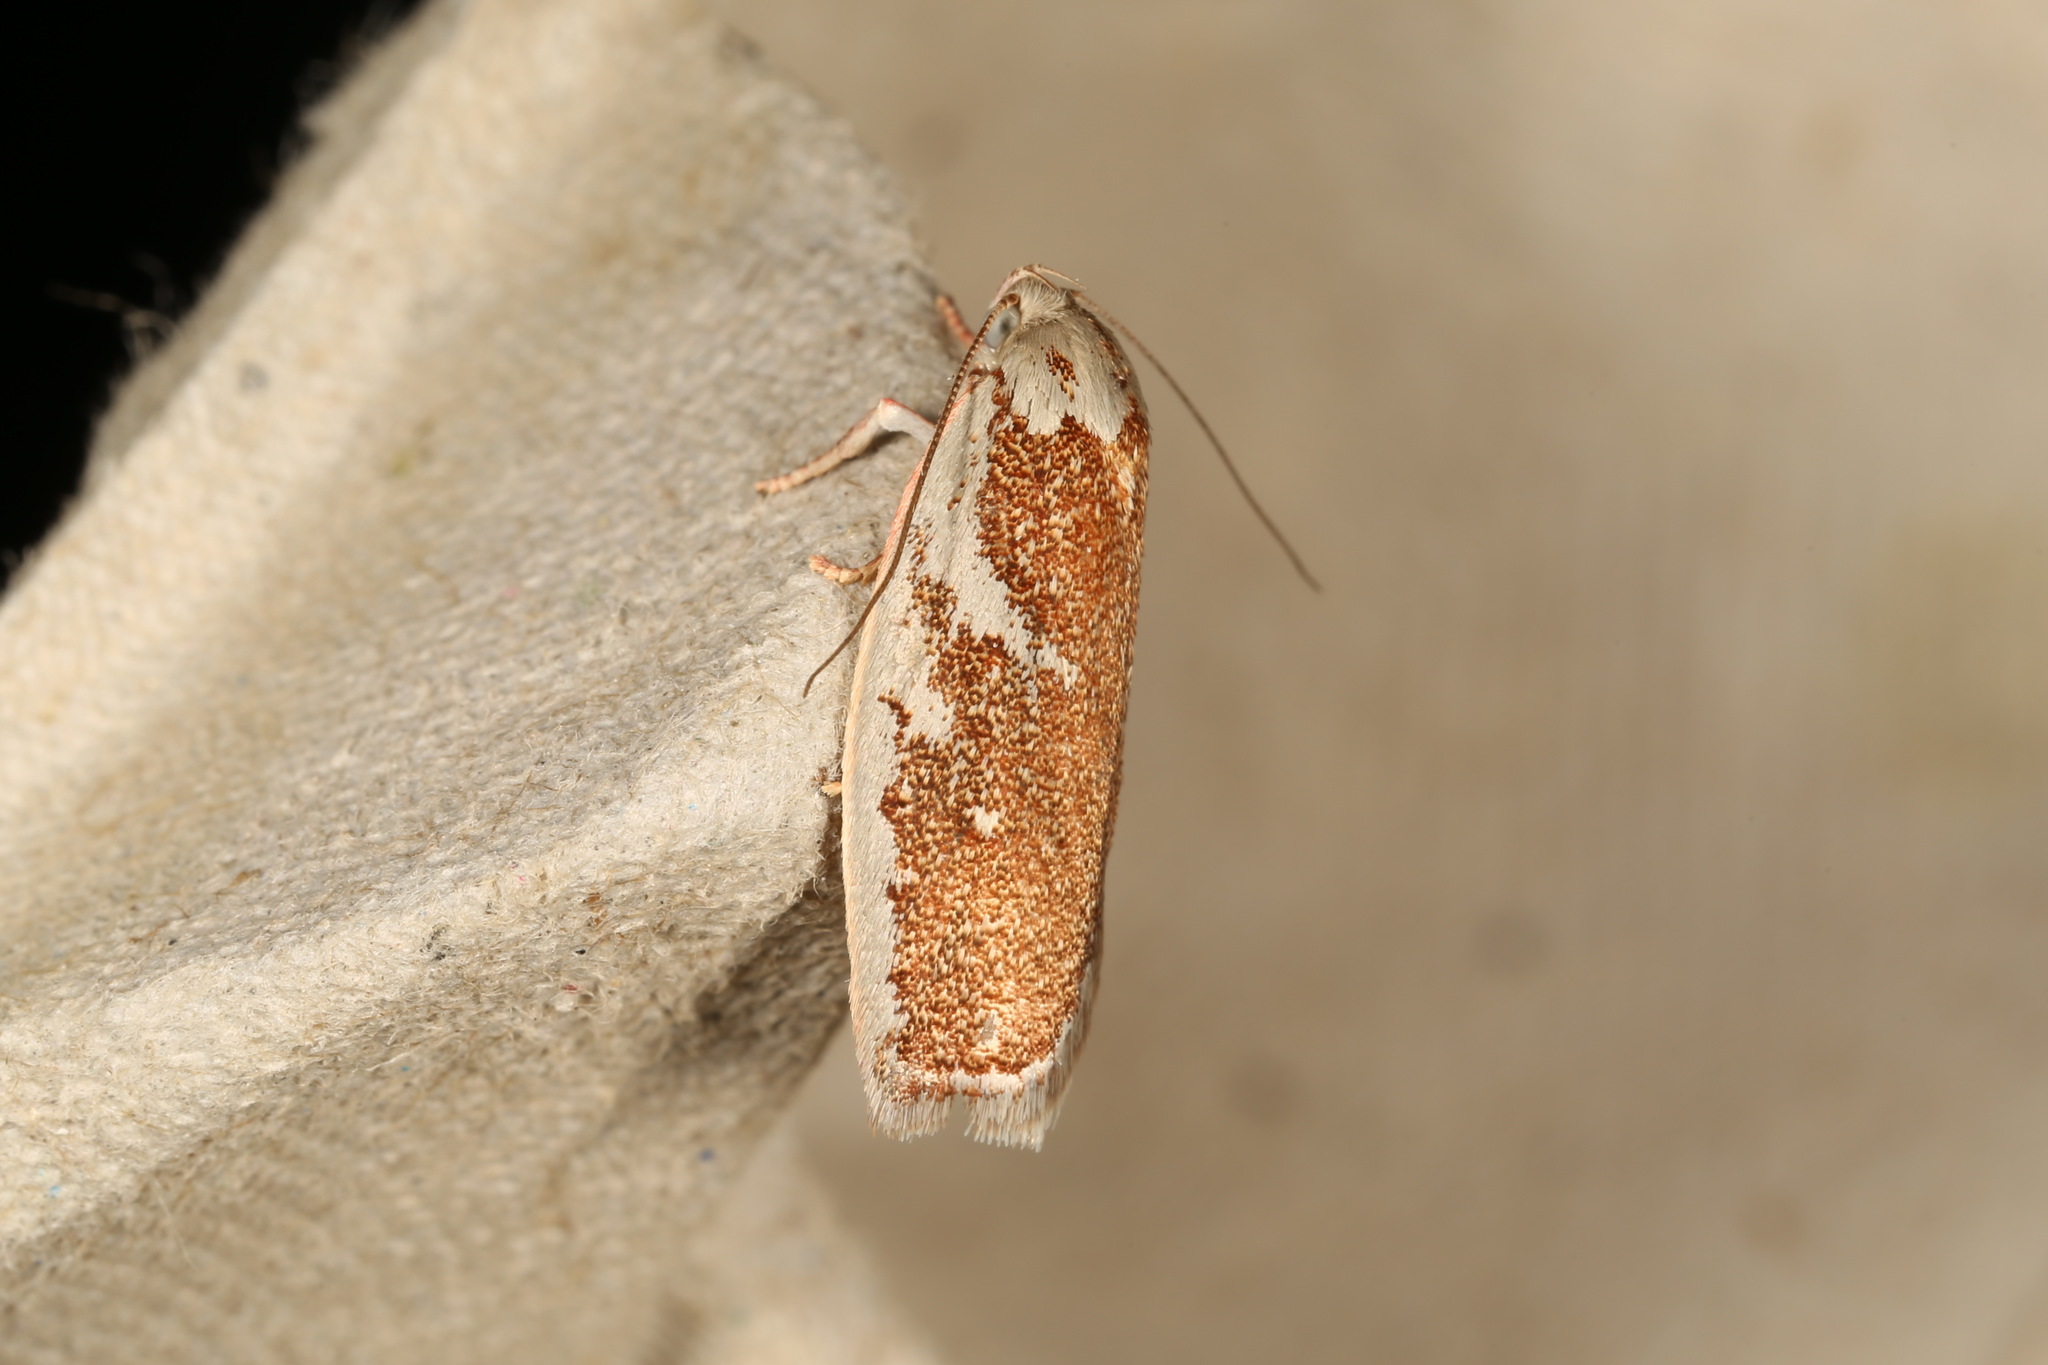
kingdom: Animalia
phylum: Arthropoda
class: Insecta
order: Lepidoptera
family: Oecophoridae
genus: Euchaetis
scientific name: Euchaetis rhizobola
